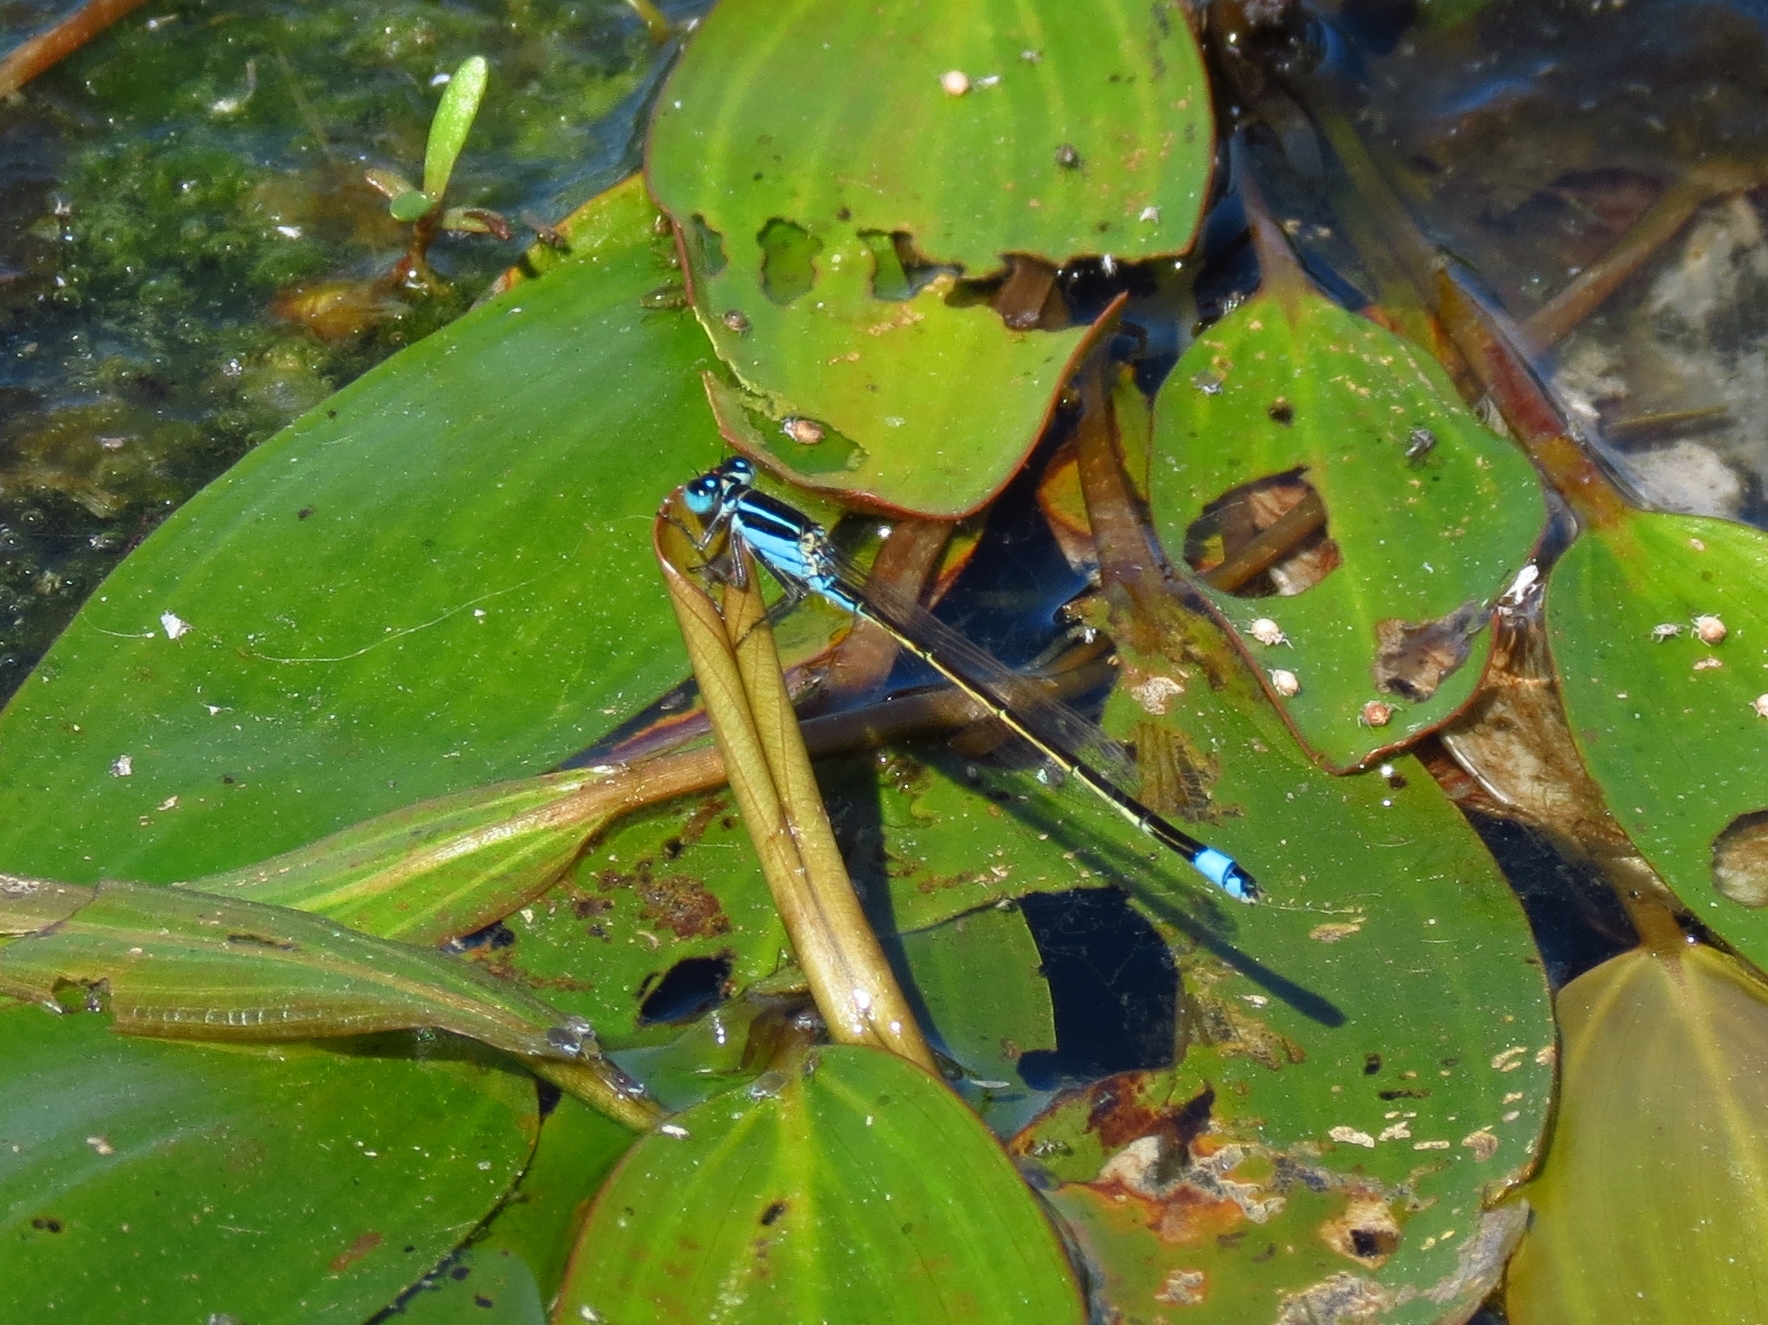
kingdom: Animalia
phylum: Arthropoda
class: Insecta
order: Odonata
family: Coenagrionidae
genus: Ischnura
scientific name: Ischnura ramburii
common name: Rambur's forktail
